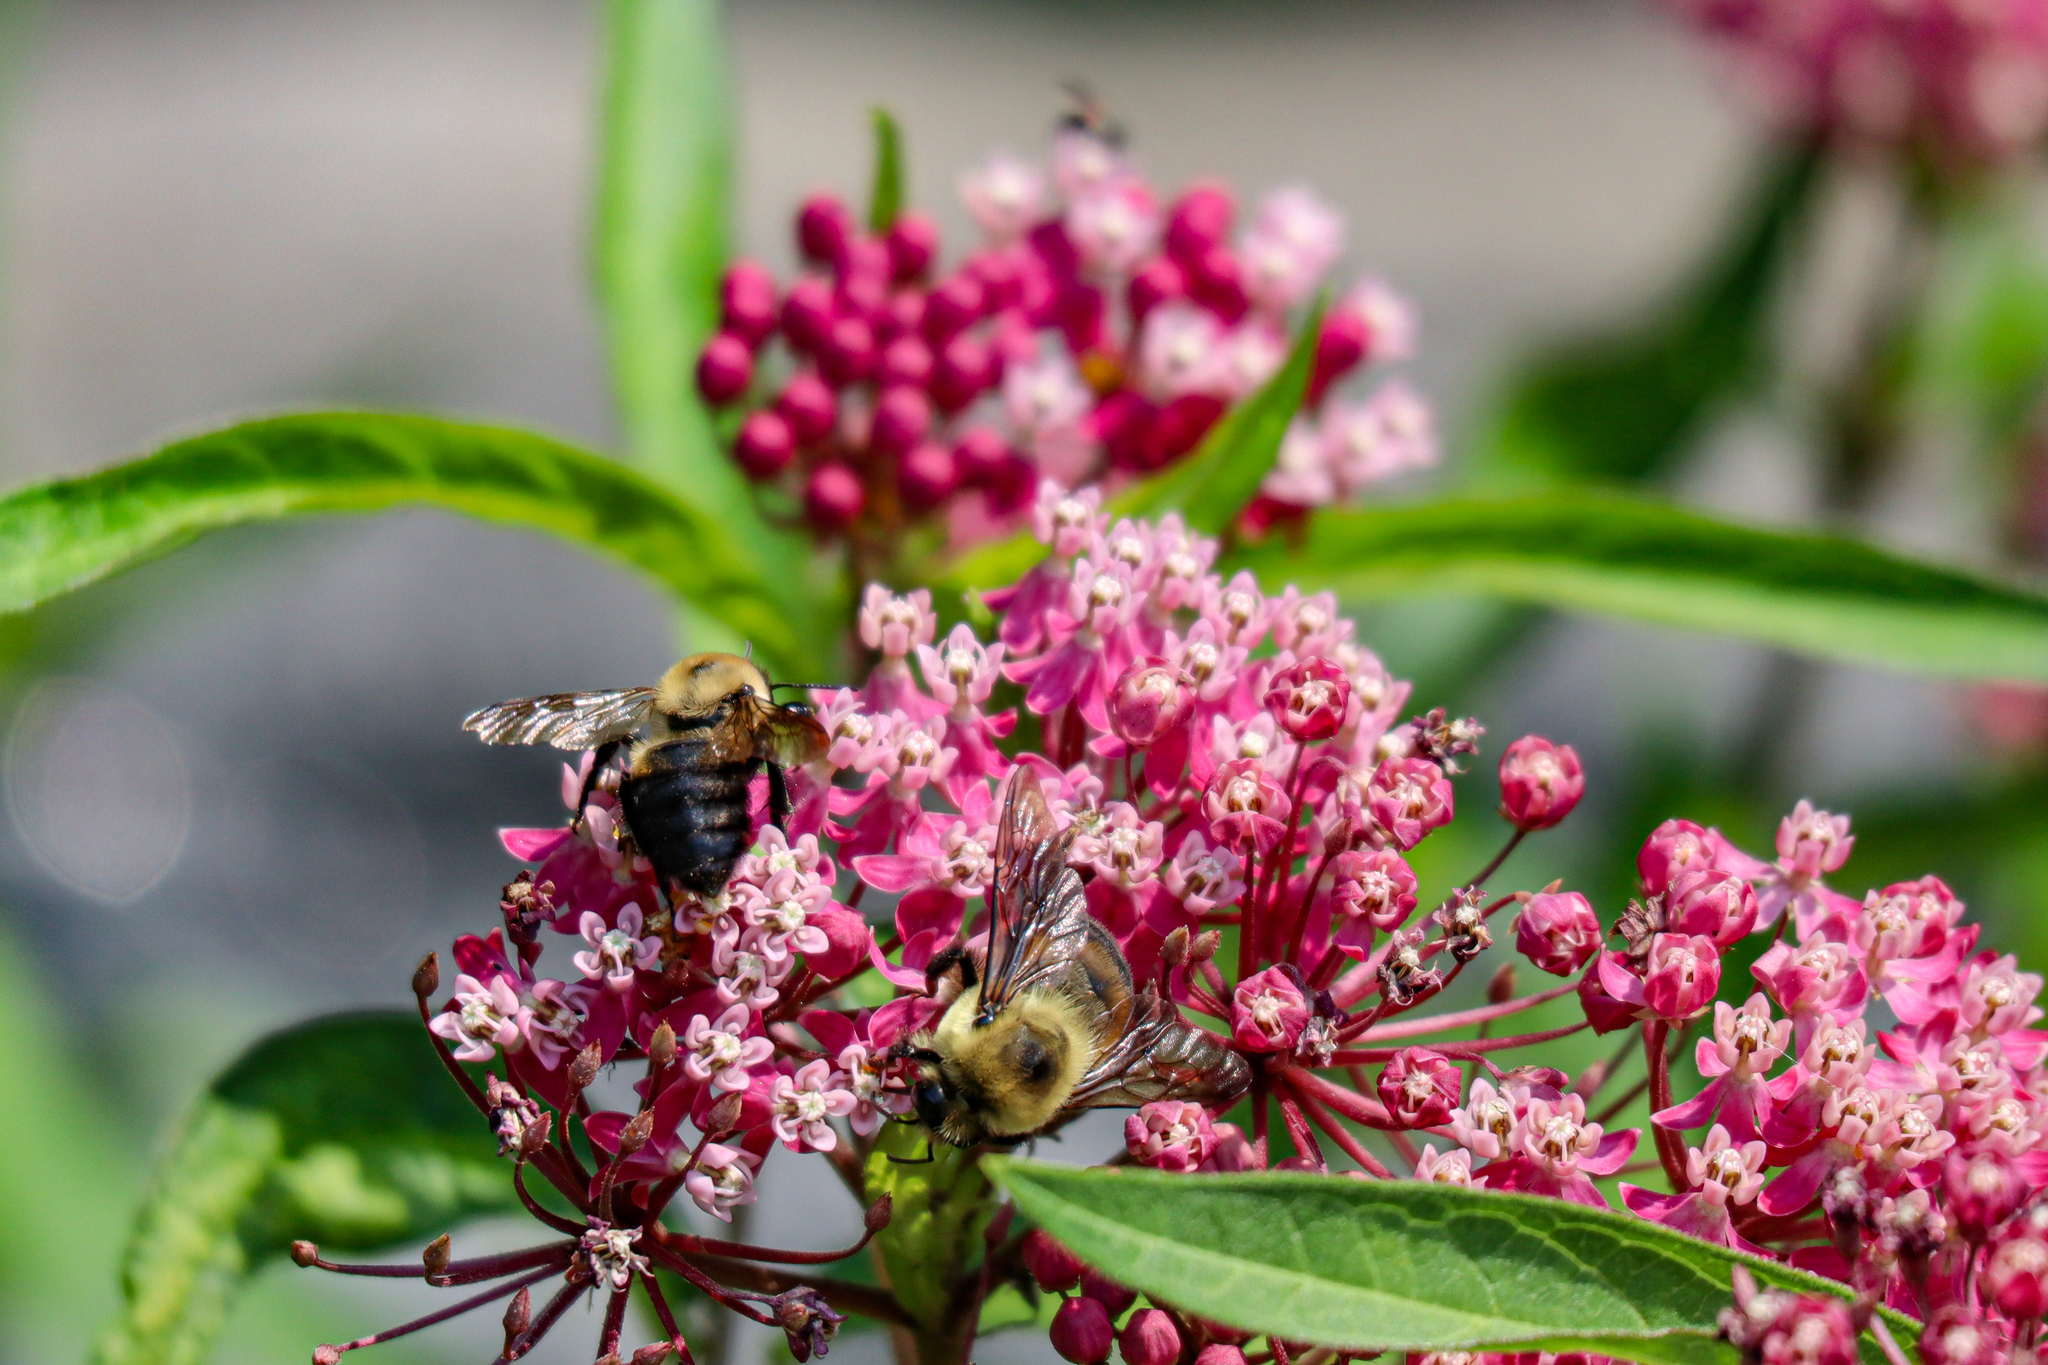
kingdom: Animalia
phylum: Arthropoda
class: Insecta
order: Hymenoptera
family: Apidae
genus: Bombus
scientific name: Bombus griseocollis
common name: Brown-belted bumble bee
